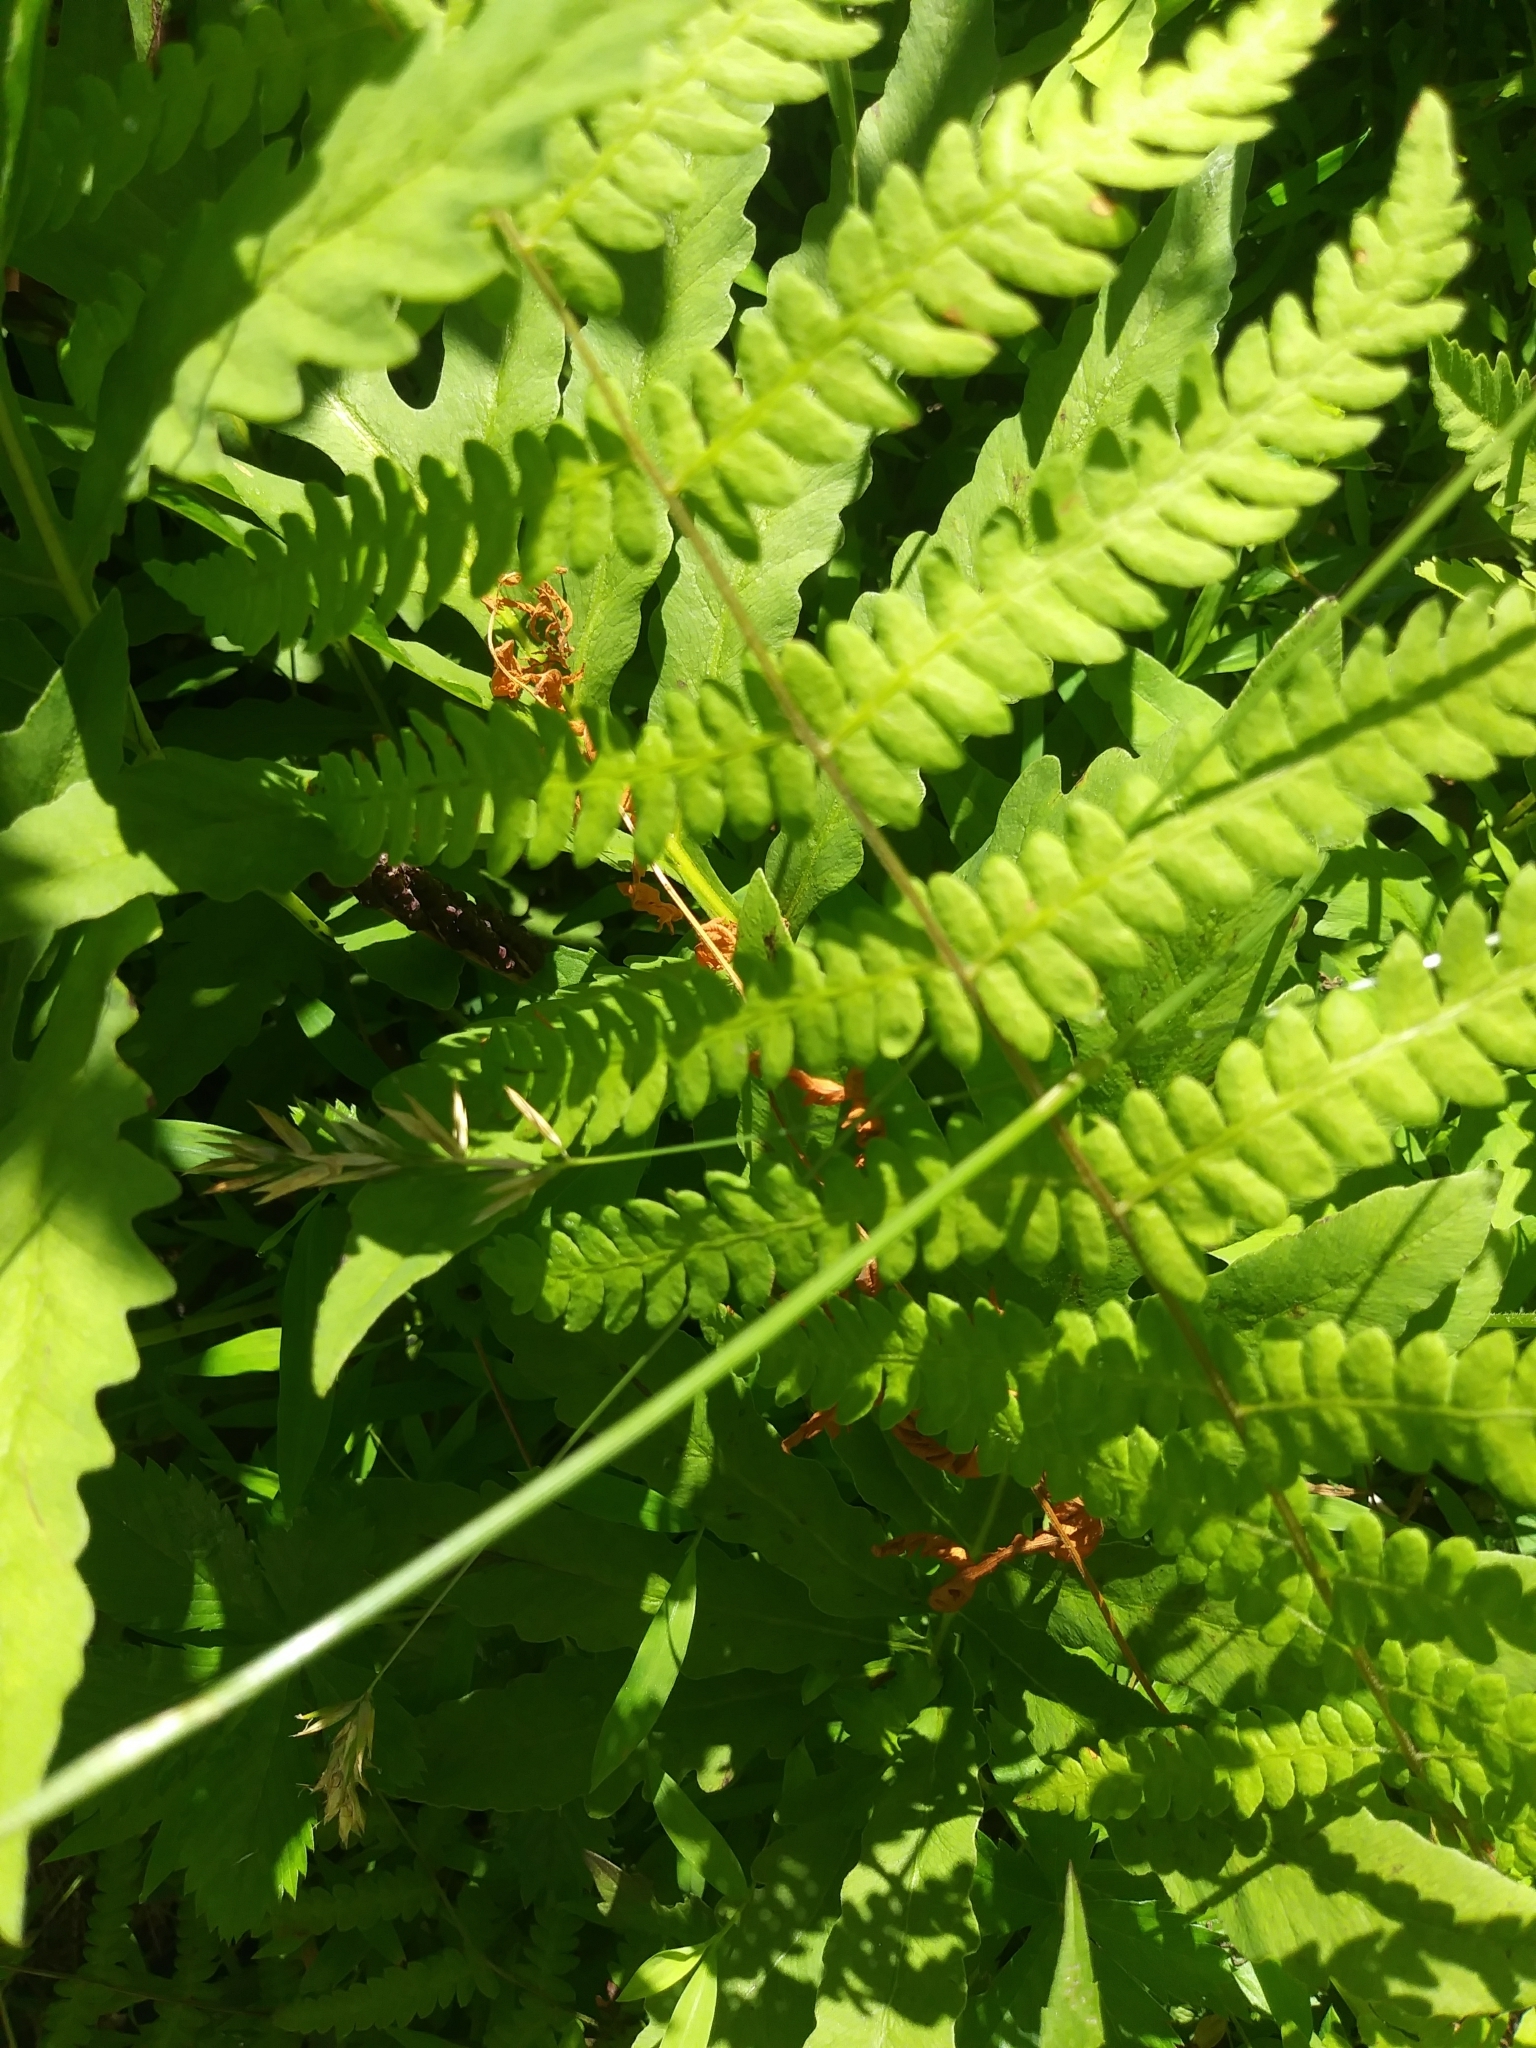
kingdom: Plantae
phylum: Tracheophyta
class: Polypodiopsida
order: Polypodiales
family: Thelypteridaceae
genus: Thelypteris
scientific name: Thelypteris palustris
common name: Marsh fern
